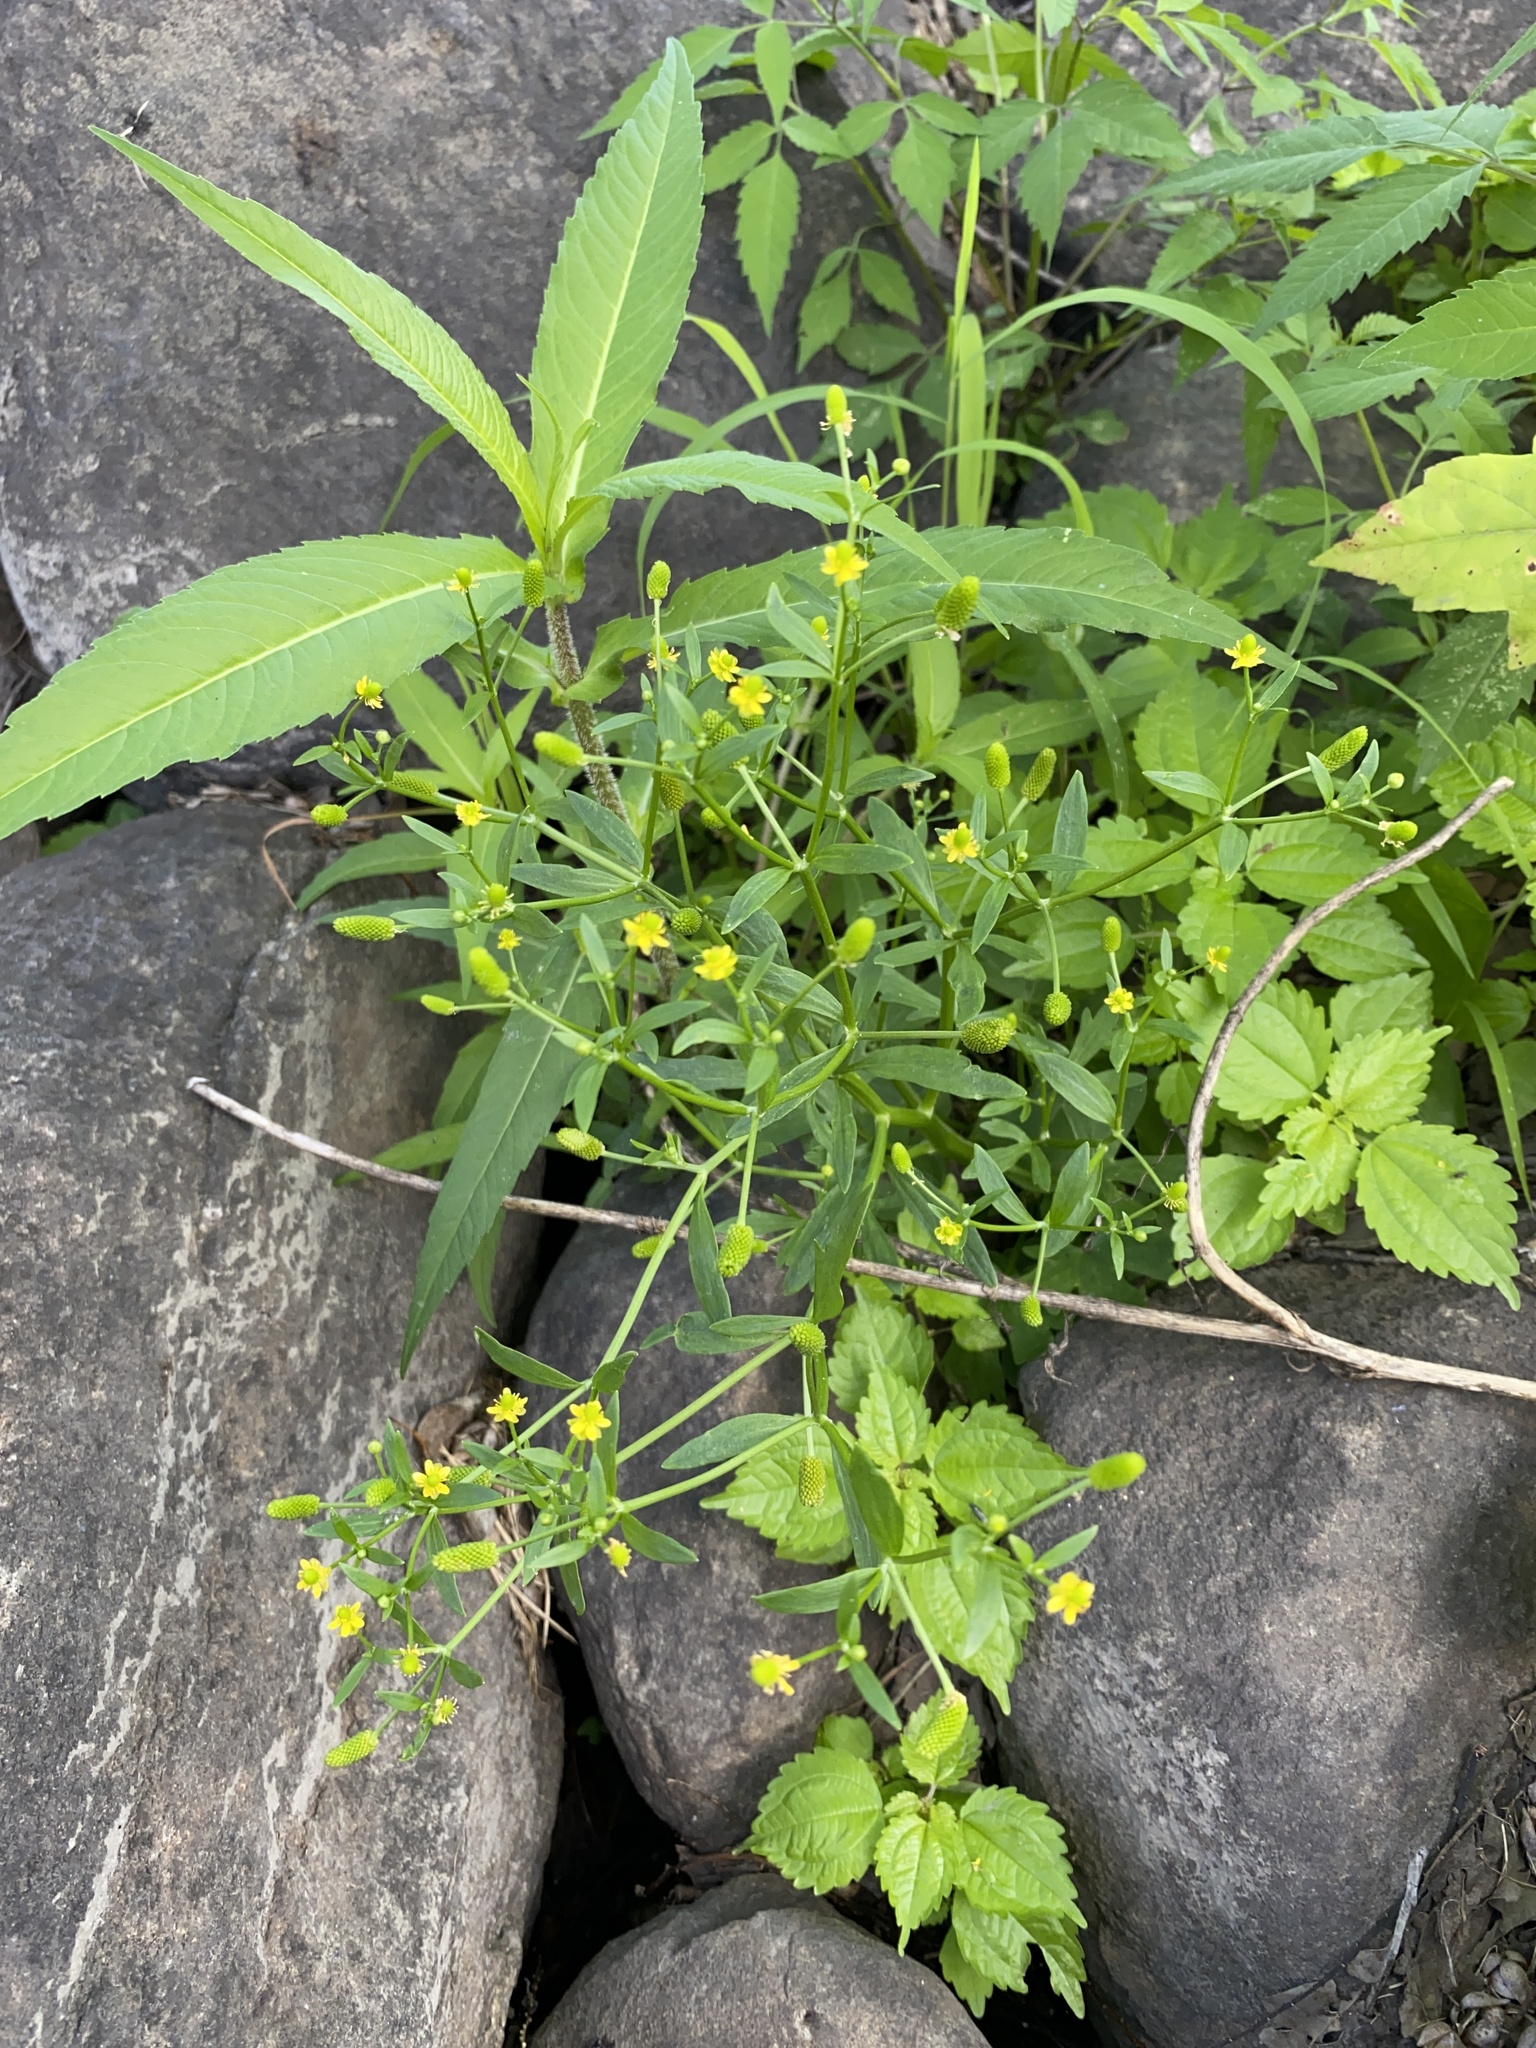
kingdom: Plantae
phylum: Tracheophyta
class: Magnoliopsida
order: Ranunculales
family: Ranunculaceae
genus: Ranunculus
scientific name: Ranunculus sceleratus
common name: Celery-leaved buttercup
